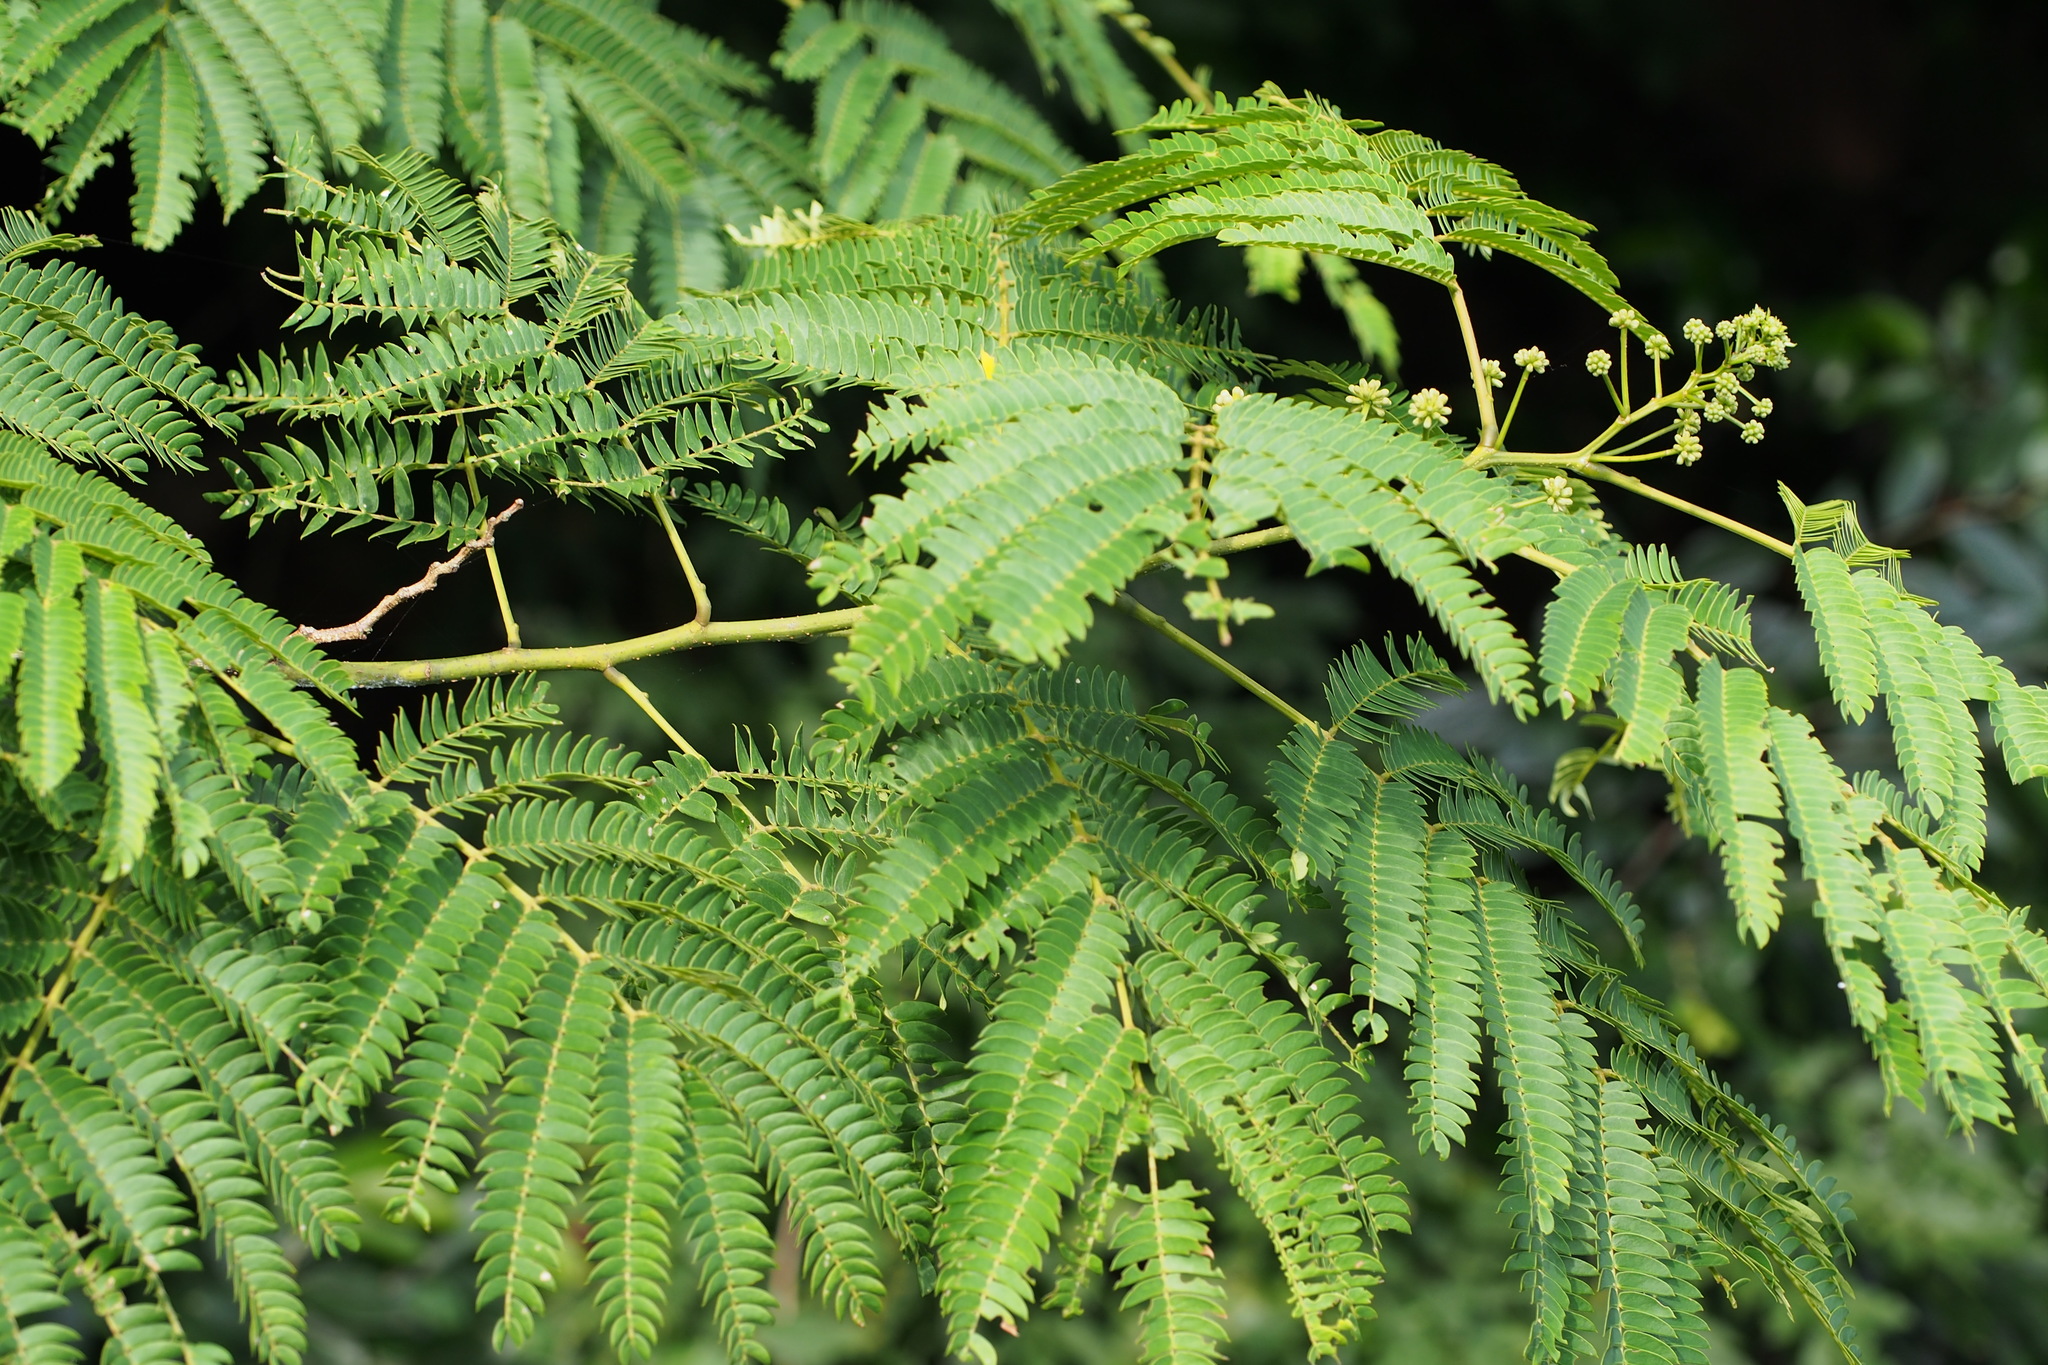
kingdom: Plantae
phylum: Tracheophyta
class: Magnoliopsida
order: Fabales
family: Fabaceae
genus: Albizia
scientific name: Albizia julibrissin
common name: Silktree
